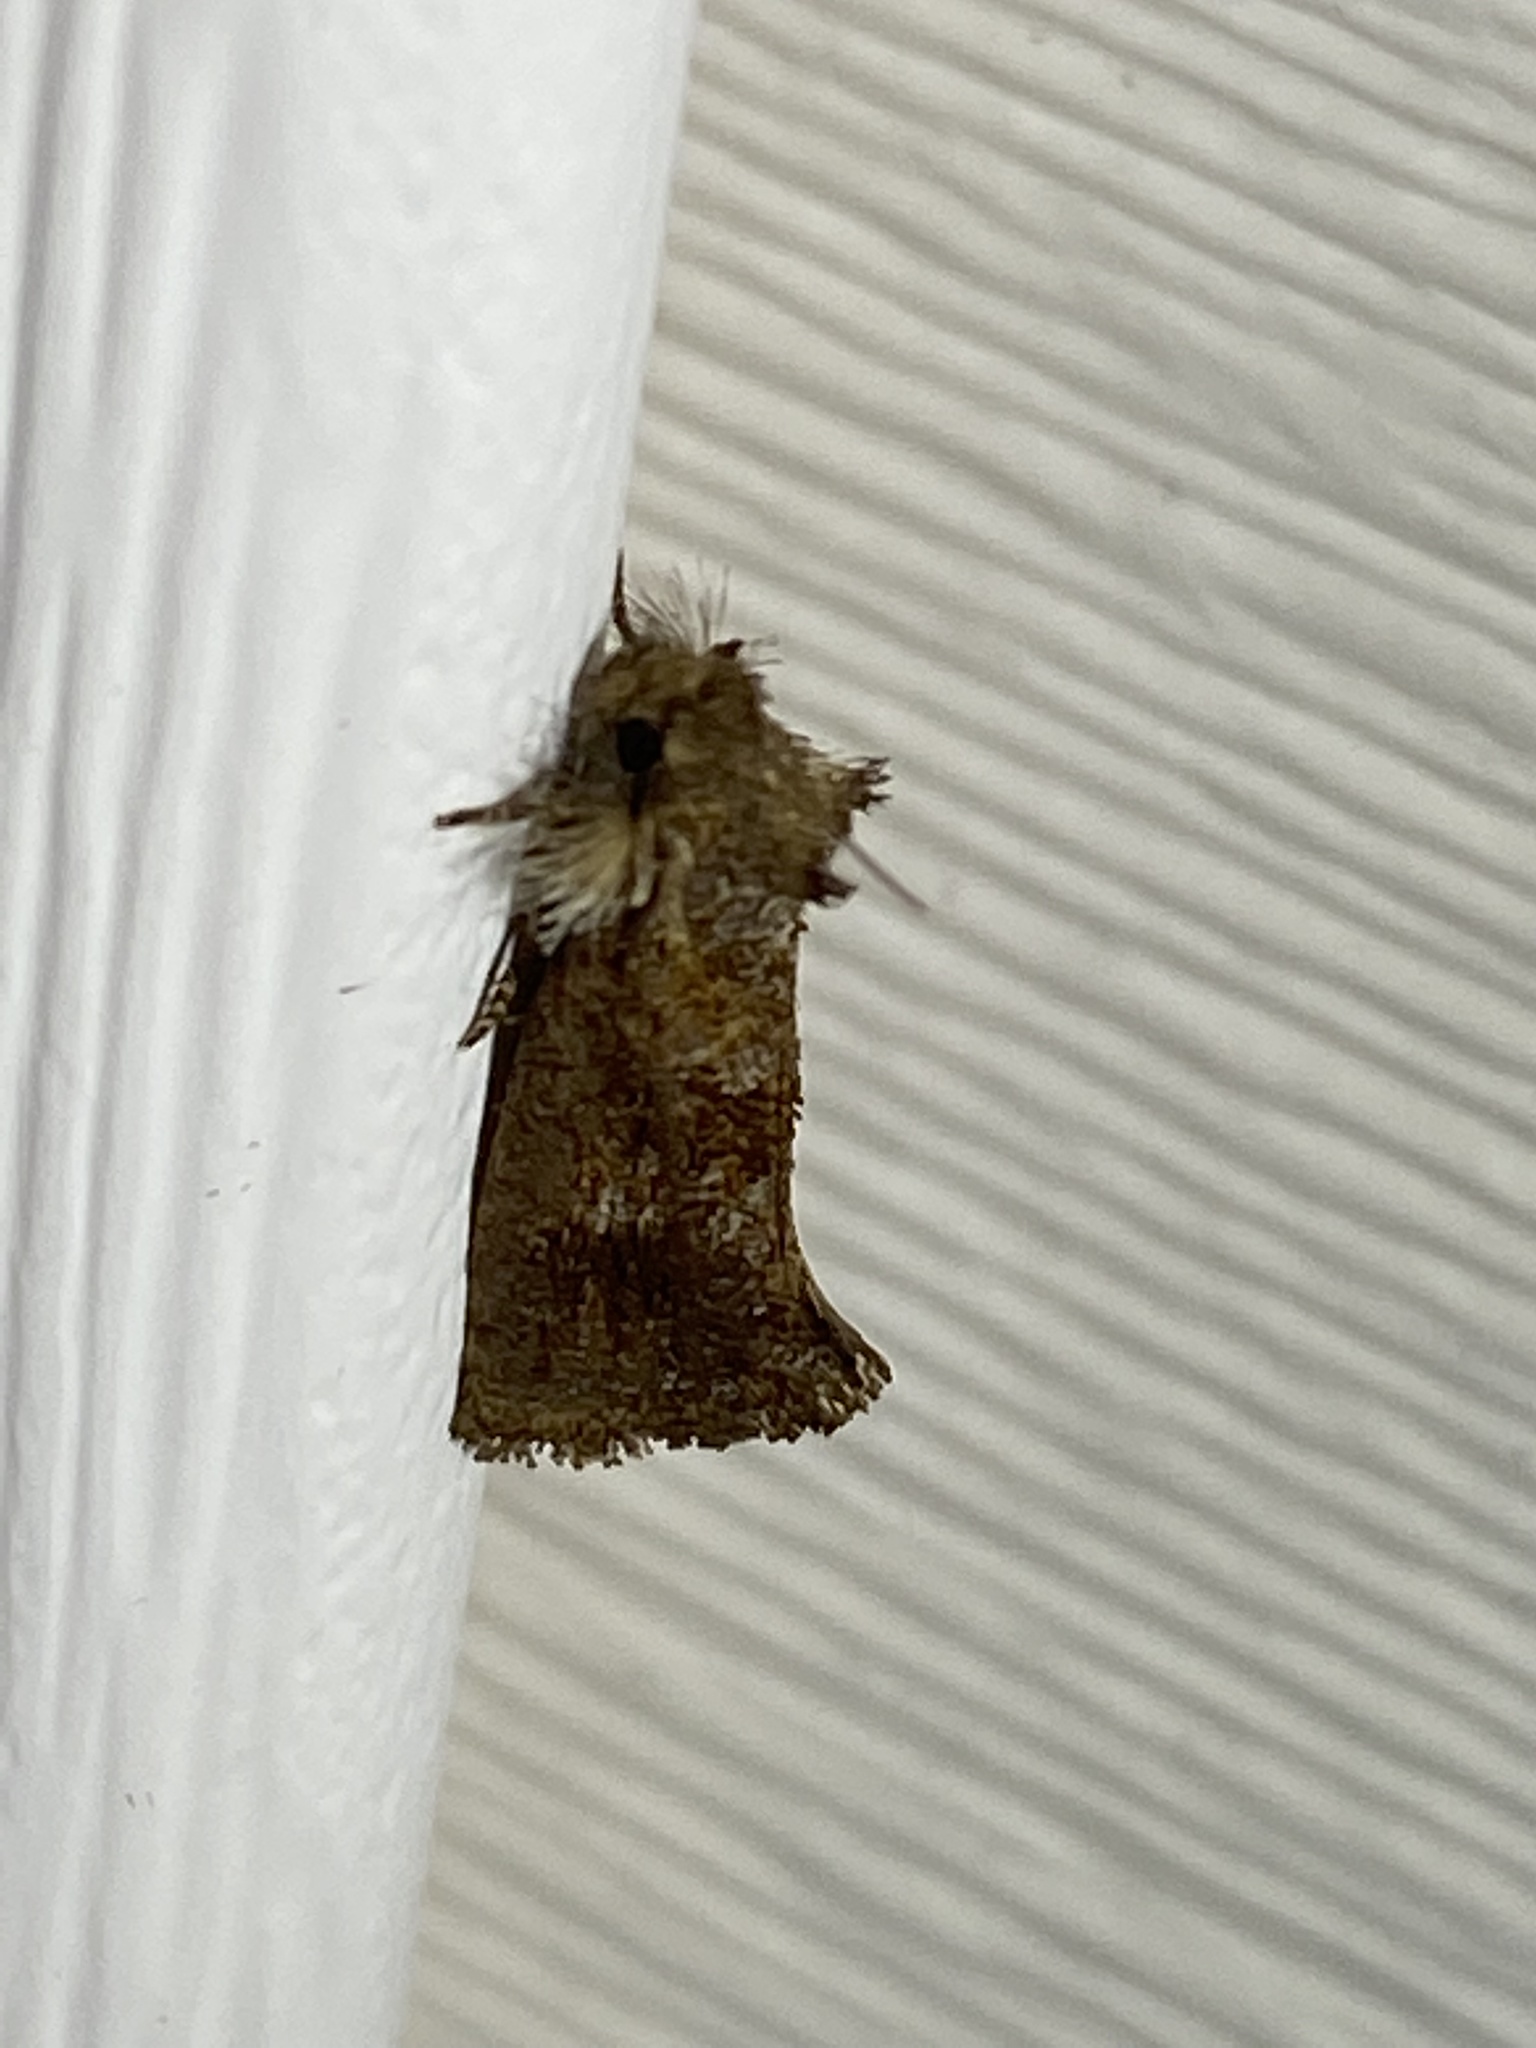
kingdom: Animalia
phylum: Arthropoda
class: Insecta
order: Lepidoptera
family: Tineidae
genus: Acrolophus
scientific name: Acrolophus panamae
